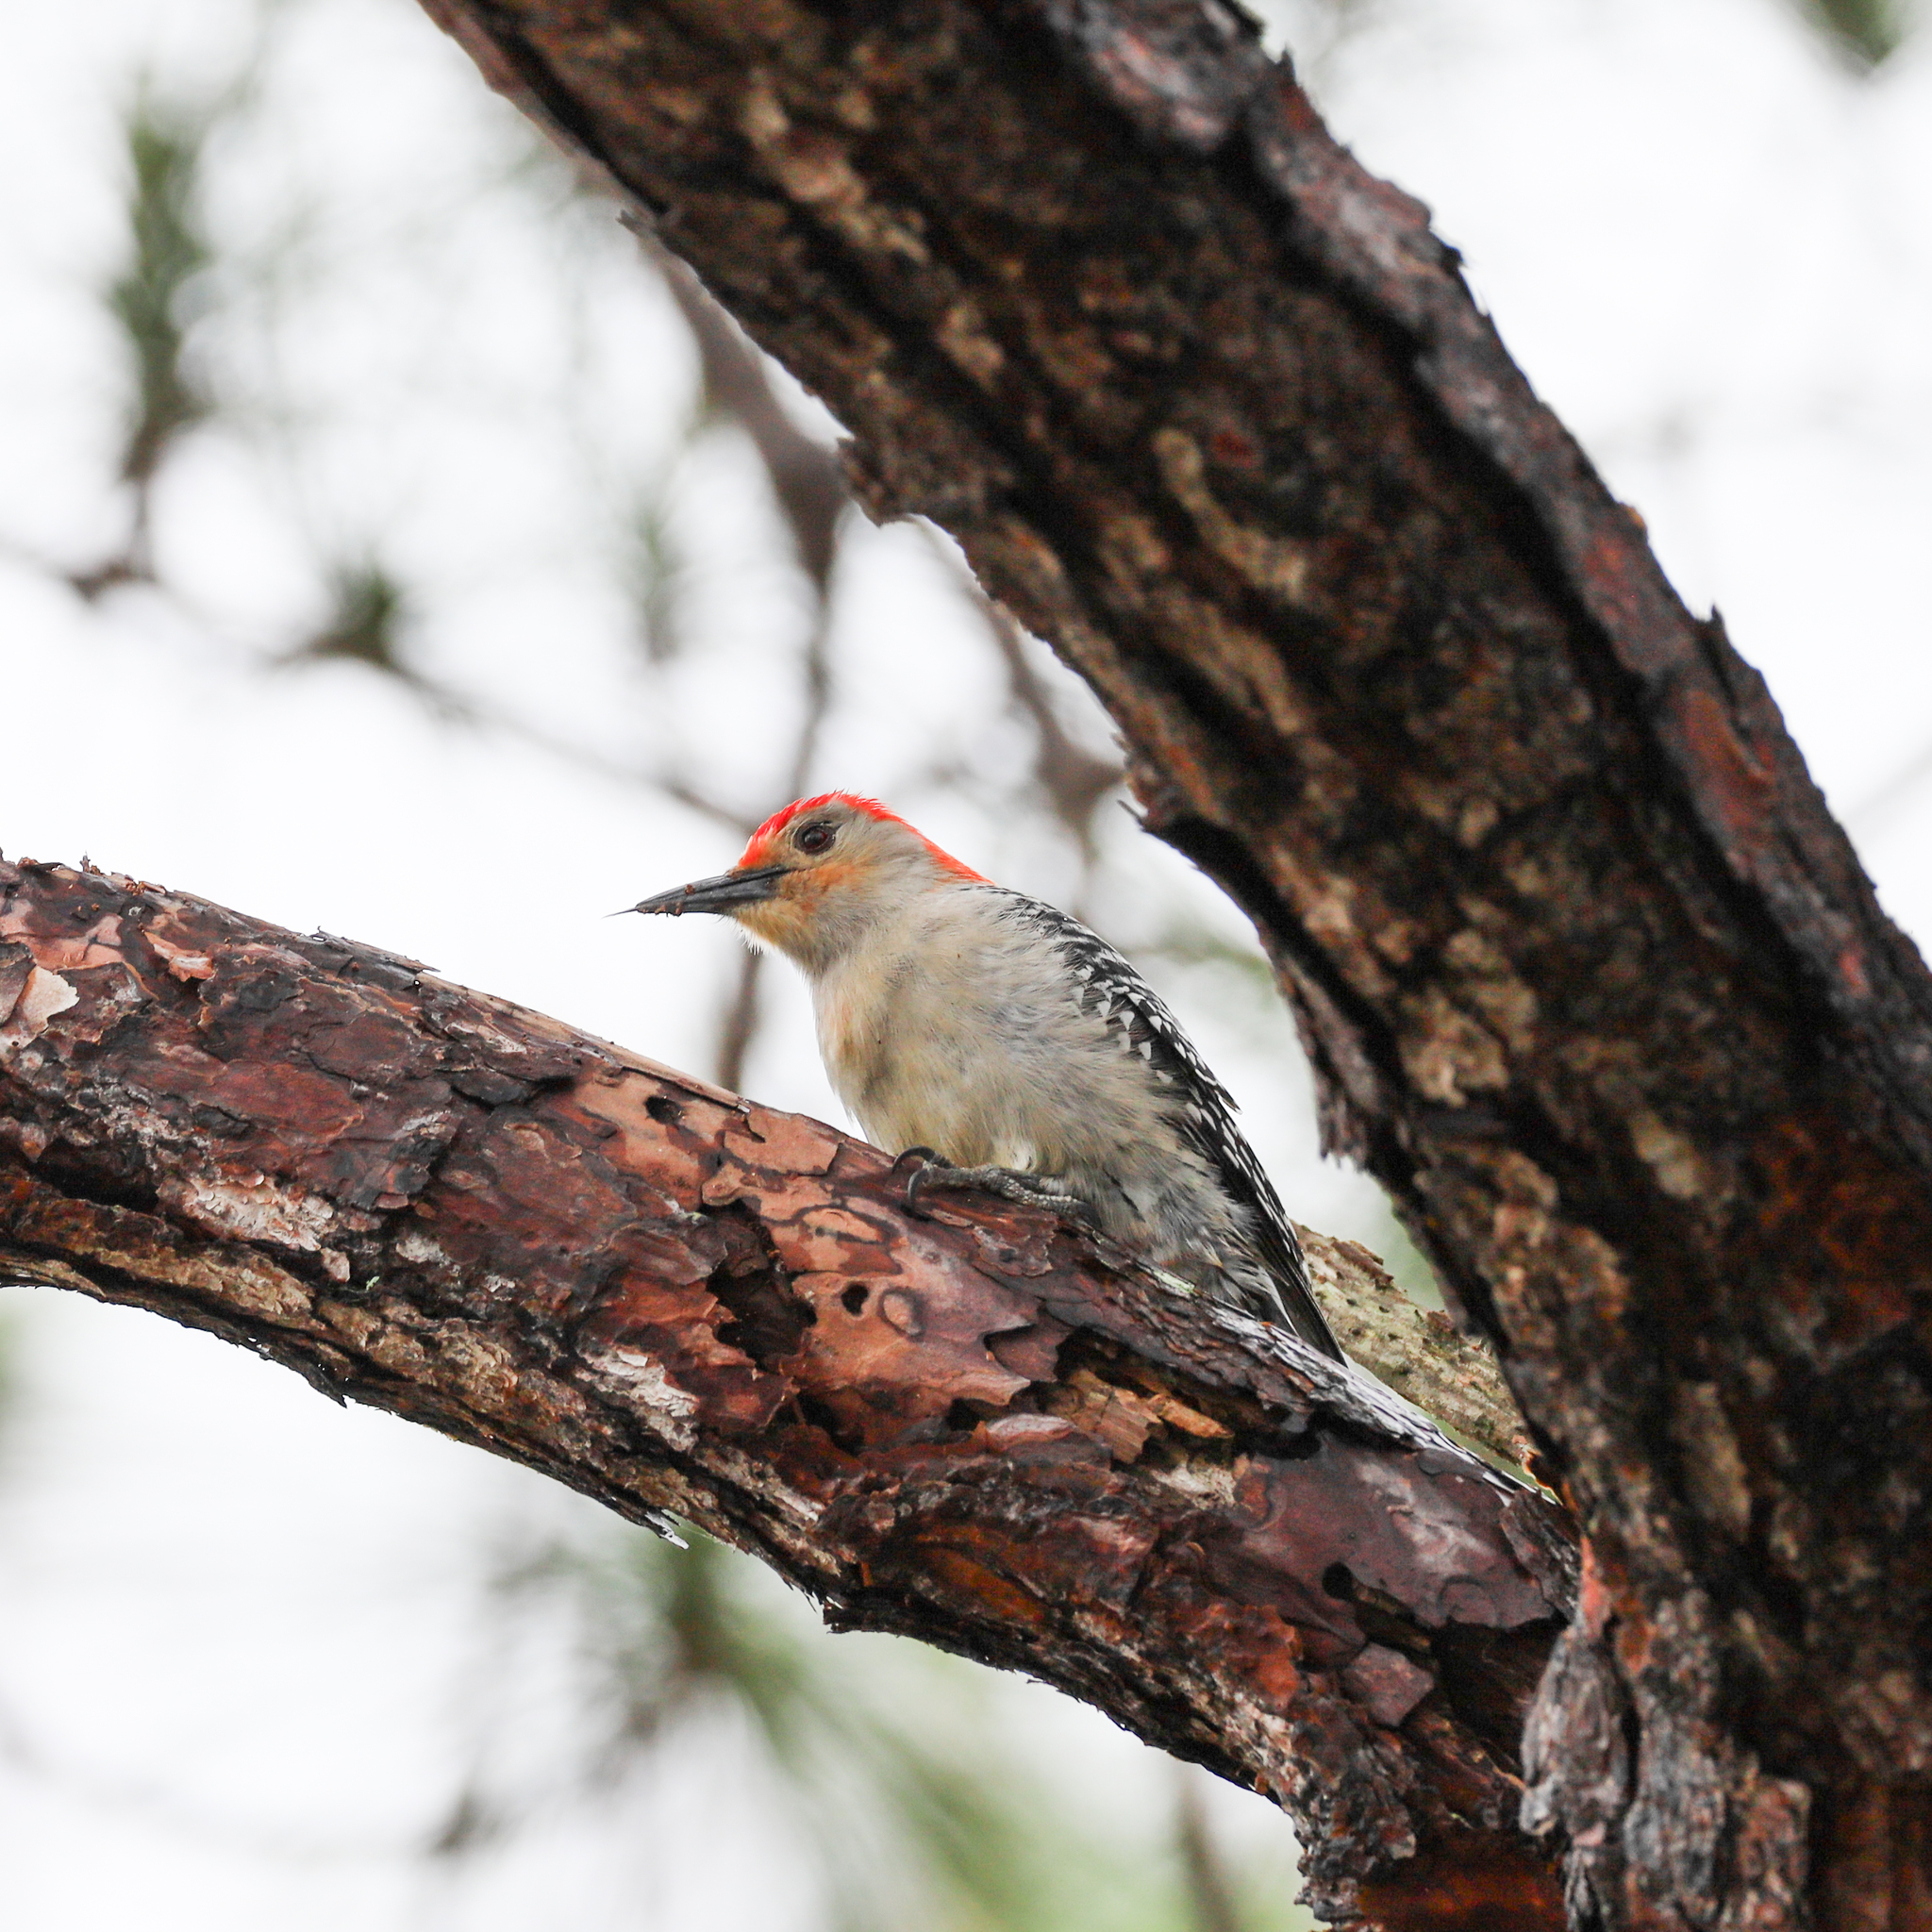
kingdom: Animalia
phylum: Chordata
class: Aves
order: Piciformes
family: Picidae
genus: Melanerpes
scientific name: Melanerpes carolinus
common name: Red-bellied woodpecker
